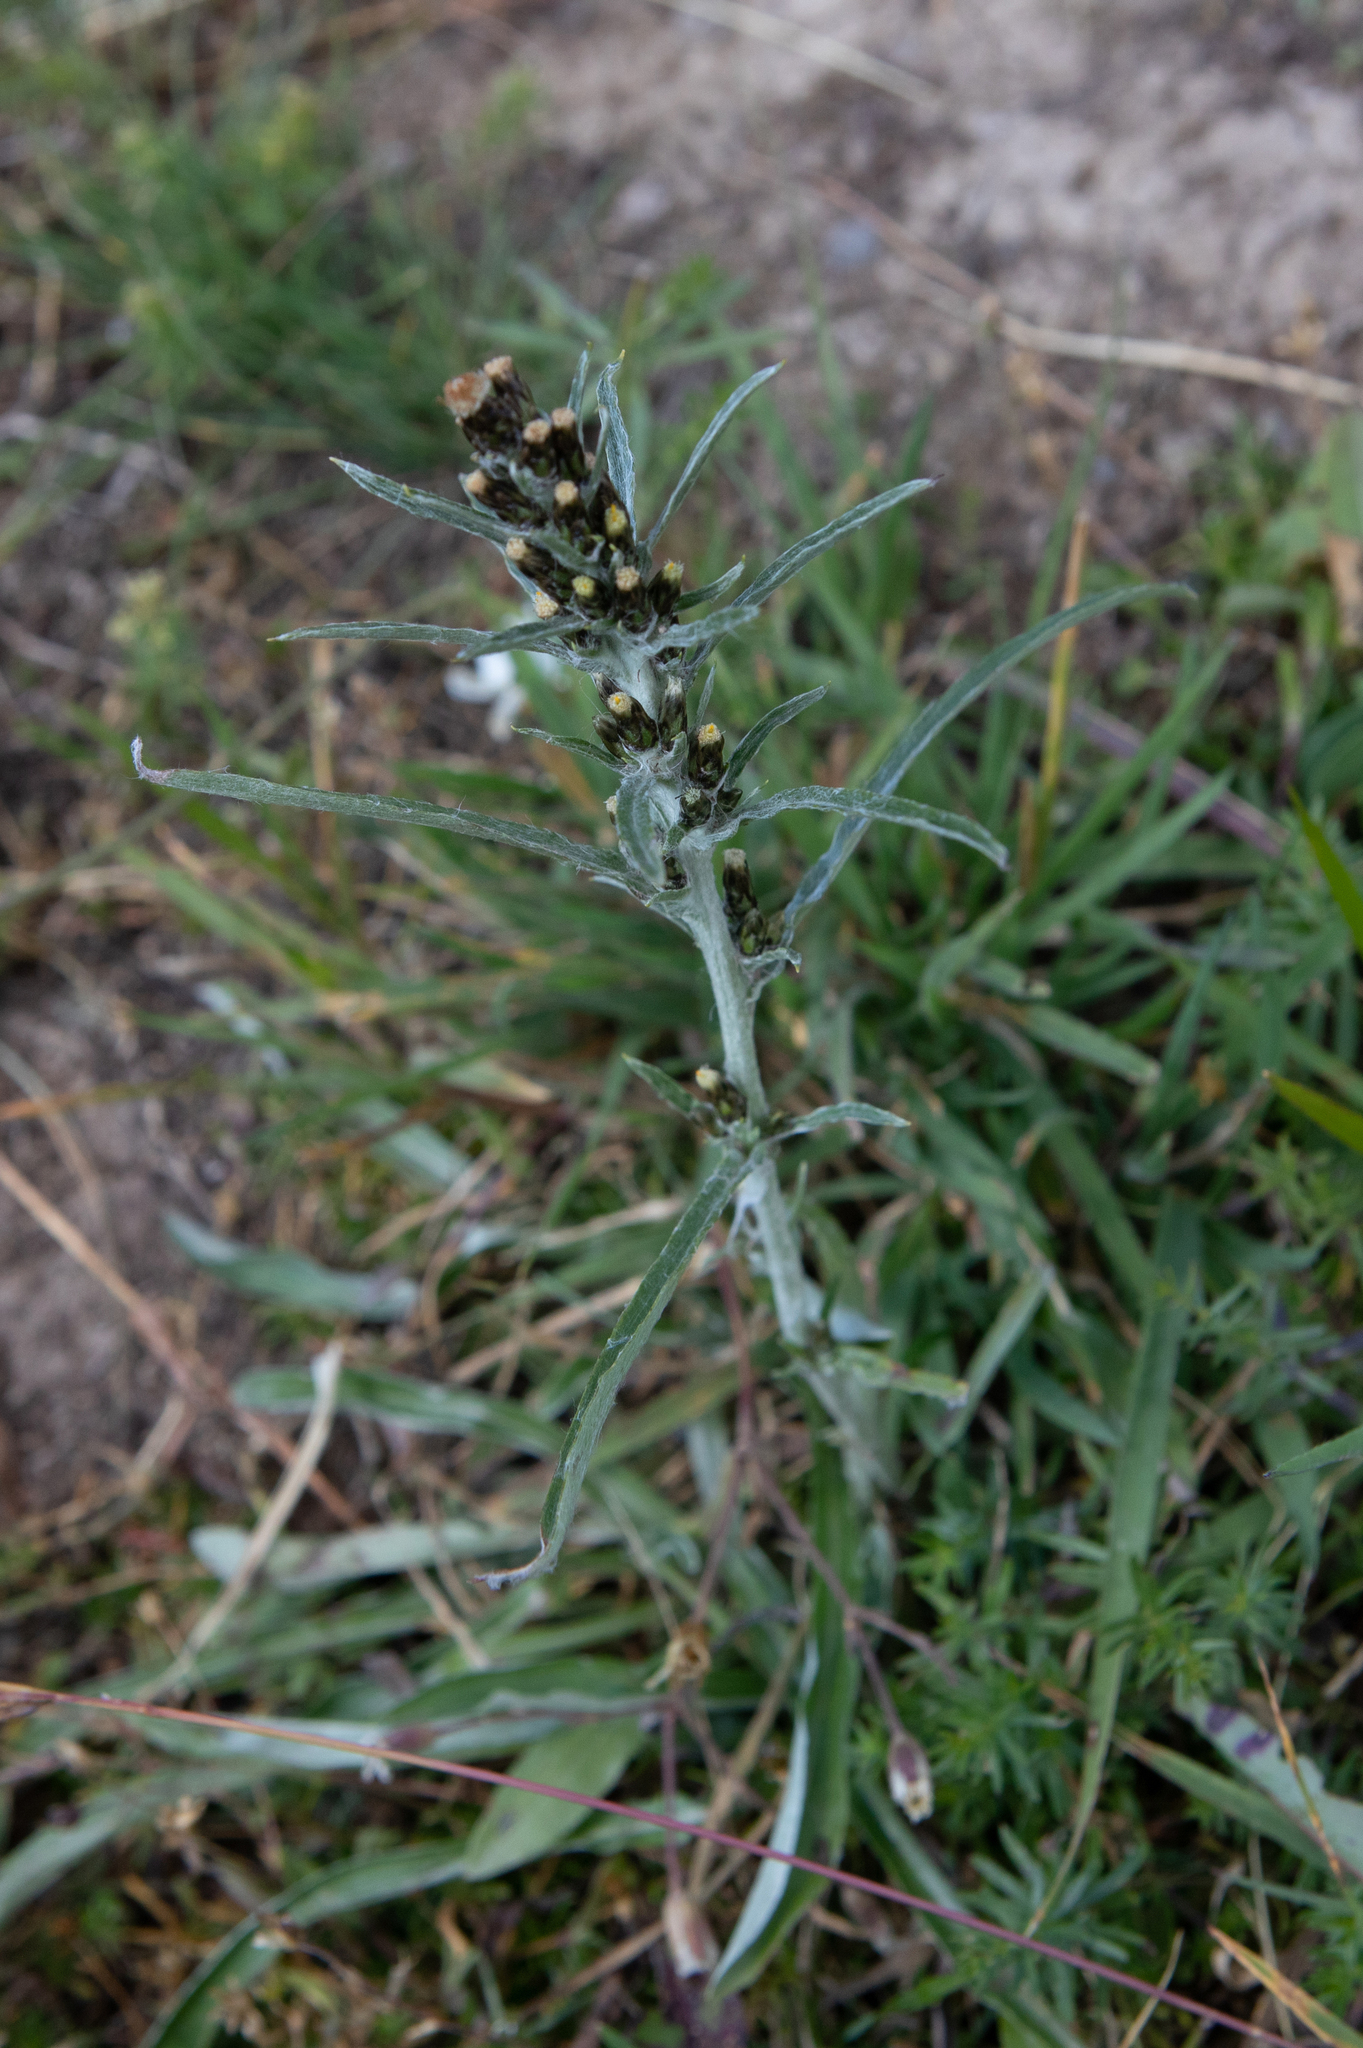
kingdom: Plantae
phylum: Tracheophyta
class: Magnoliopsida
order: Asterales
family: Asteraceae
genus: Omalotheca
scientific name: Omalotheca sylvatica
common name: Heath cudweed
